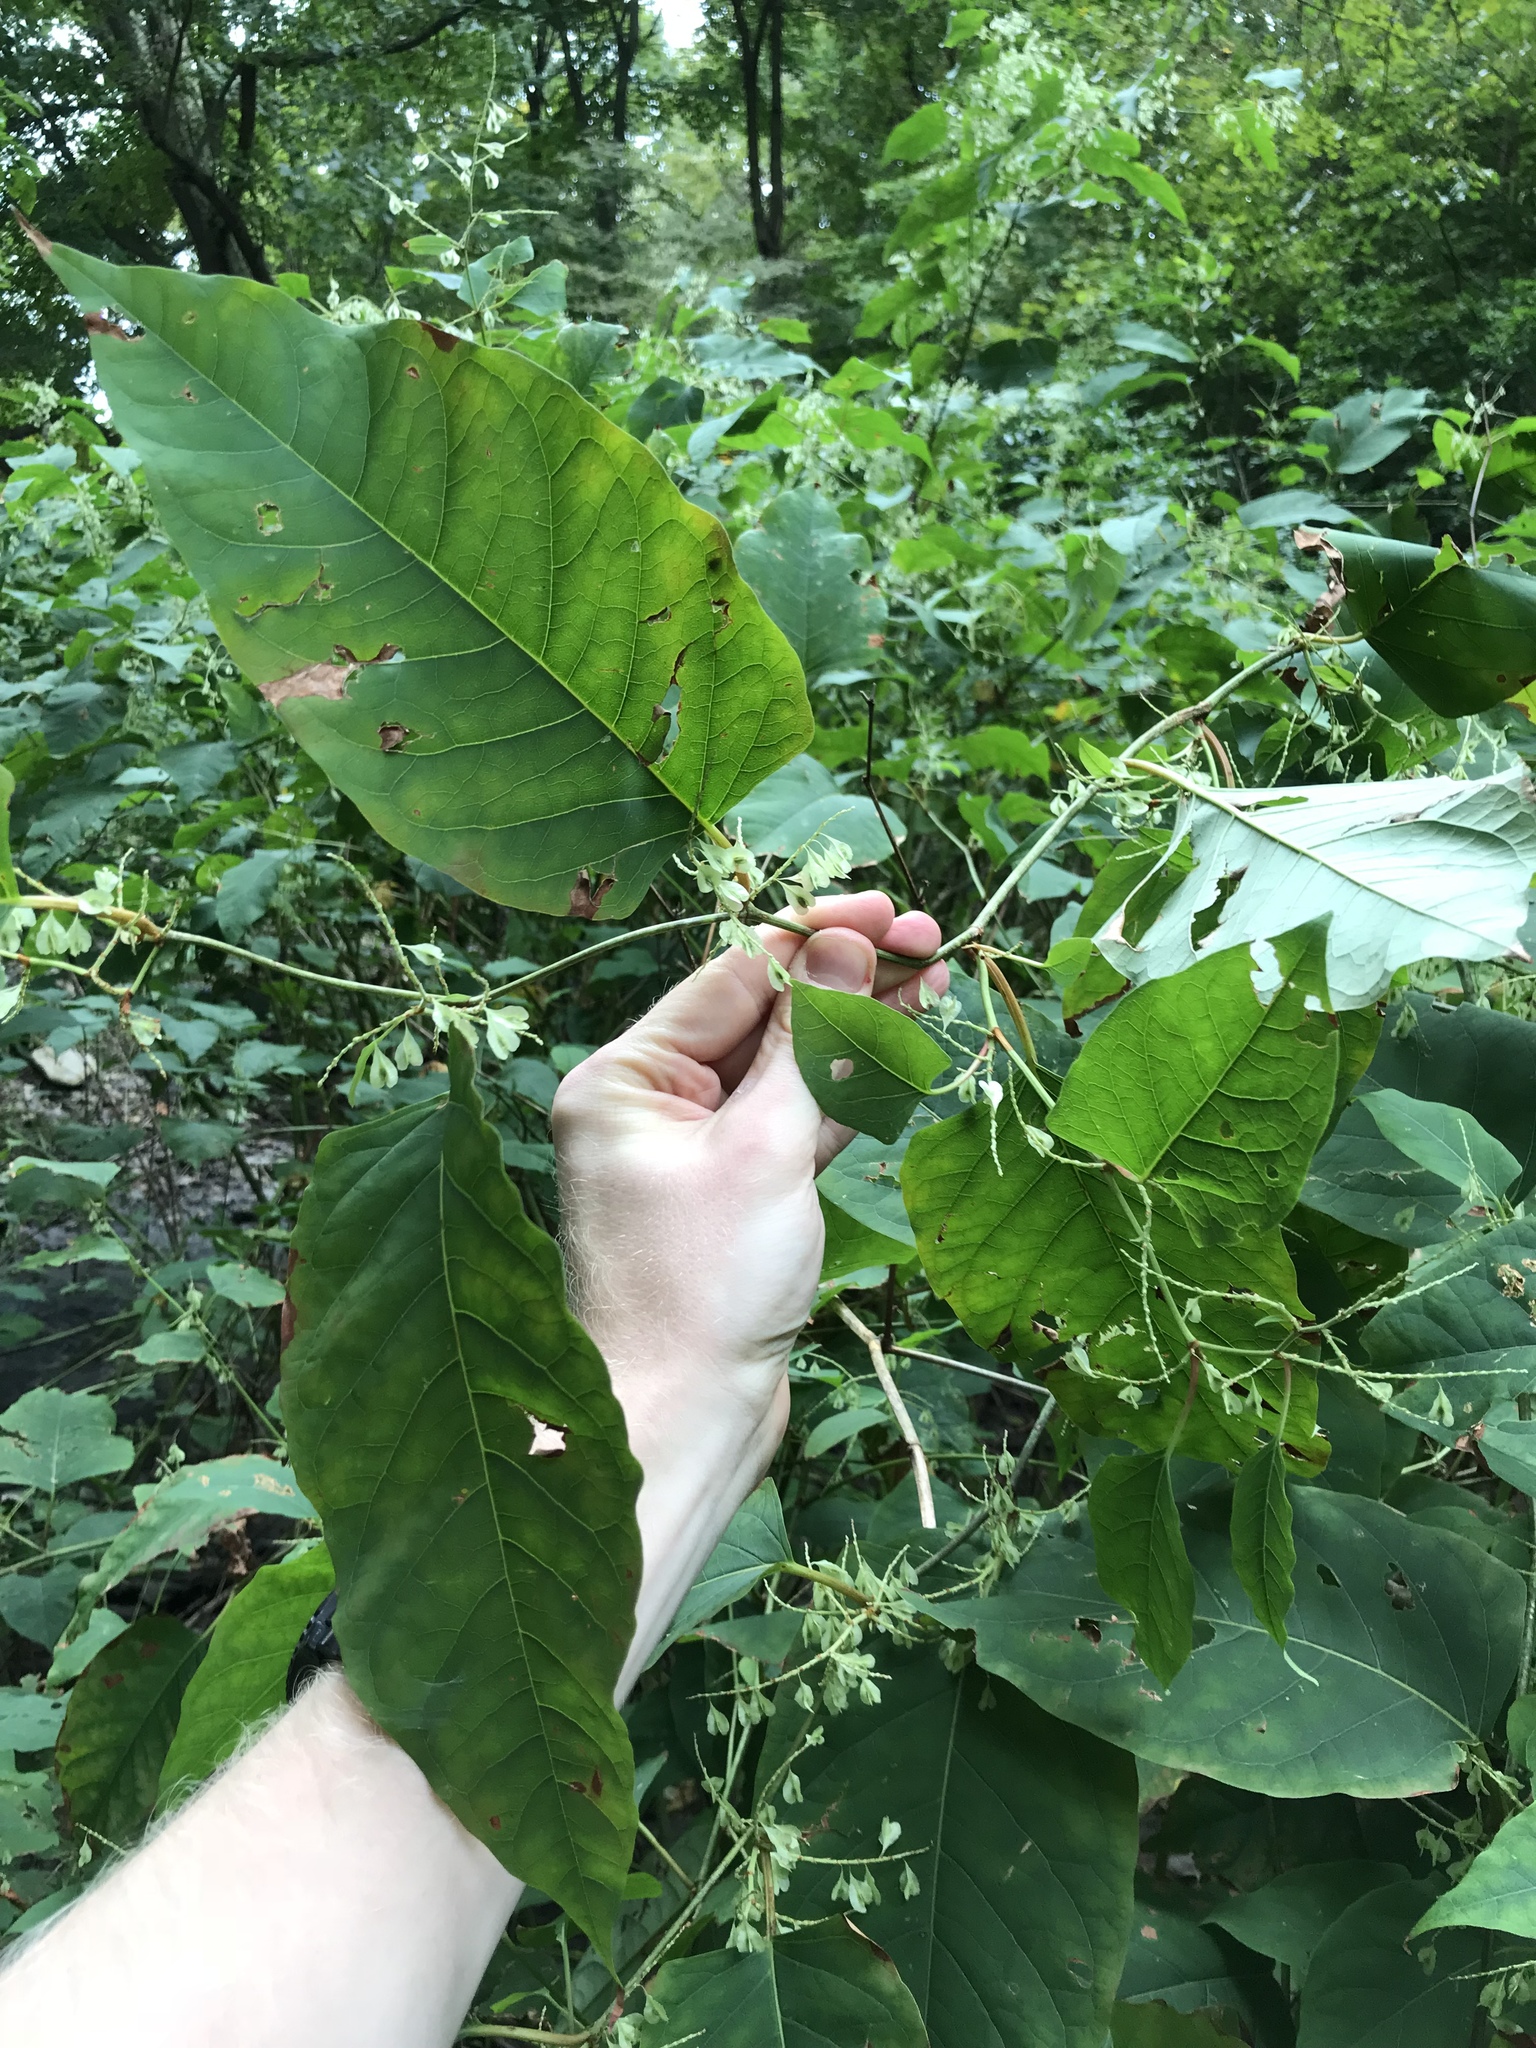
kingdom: Plantae
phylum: Tracheophyta
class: Magnoliopsida
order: Caryophyllales
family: Polygonaceae
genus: Reynoutria
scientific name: Reynoutria bohemica
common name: Bohemian knotweed
